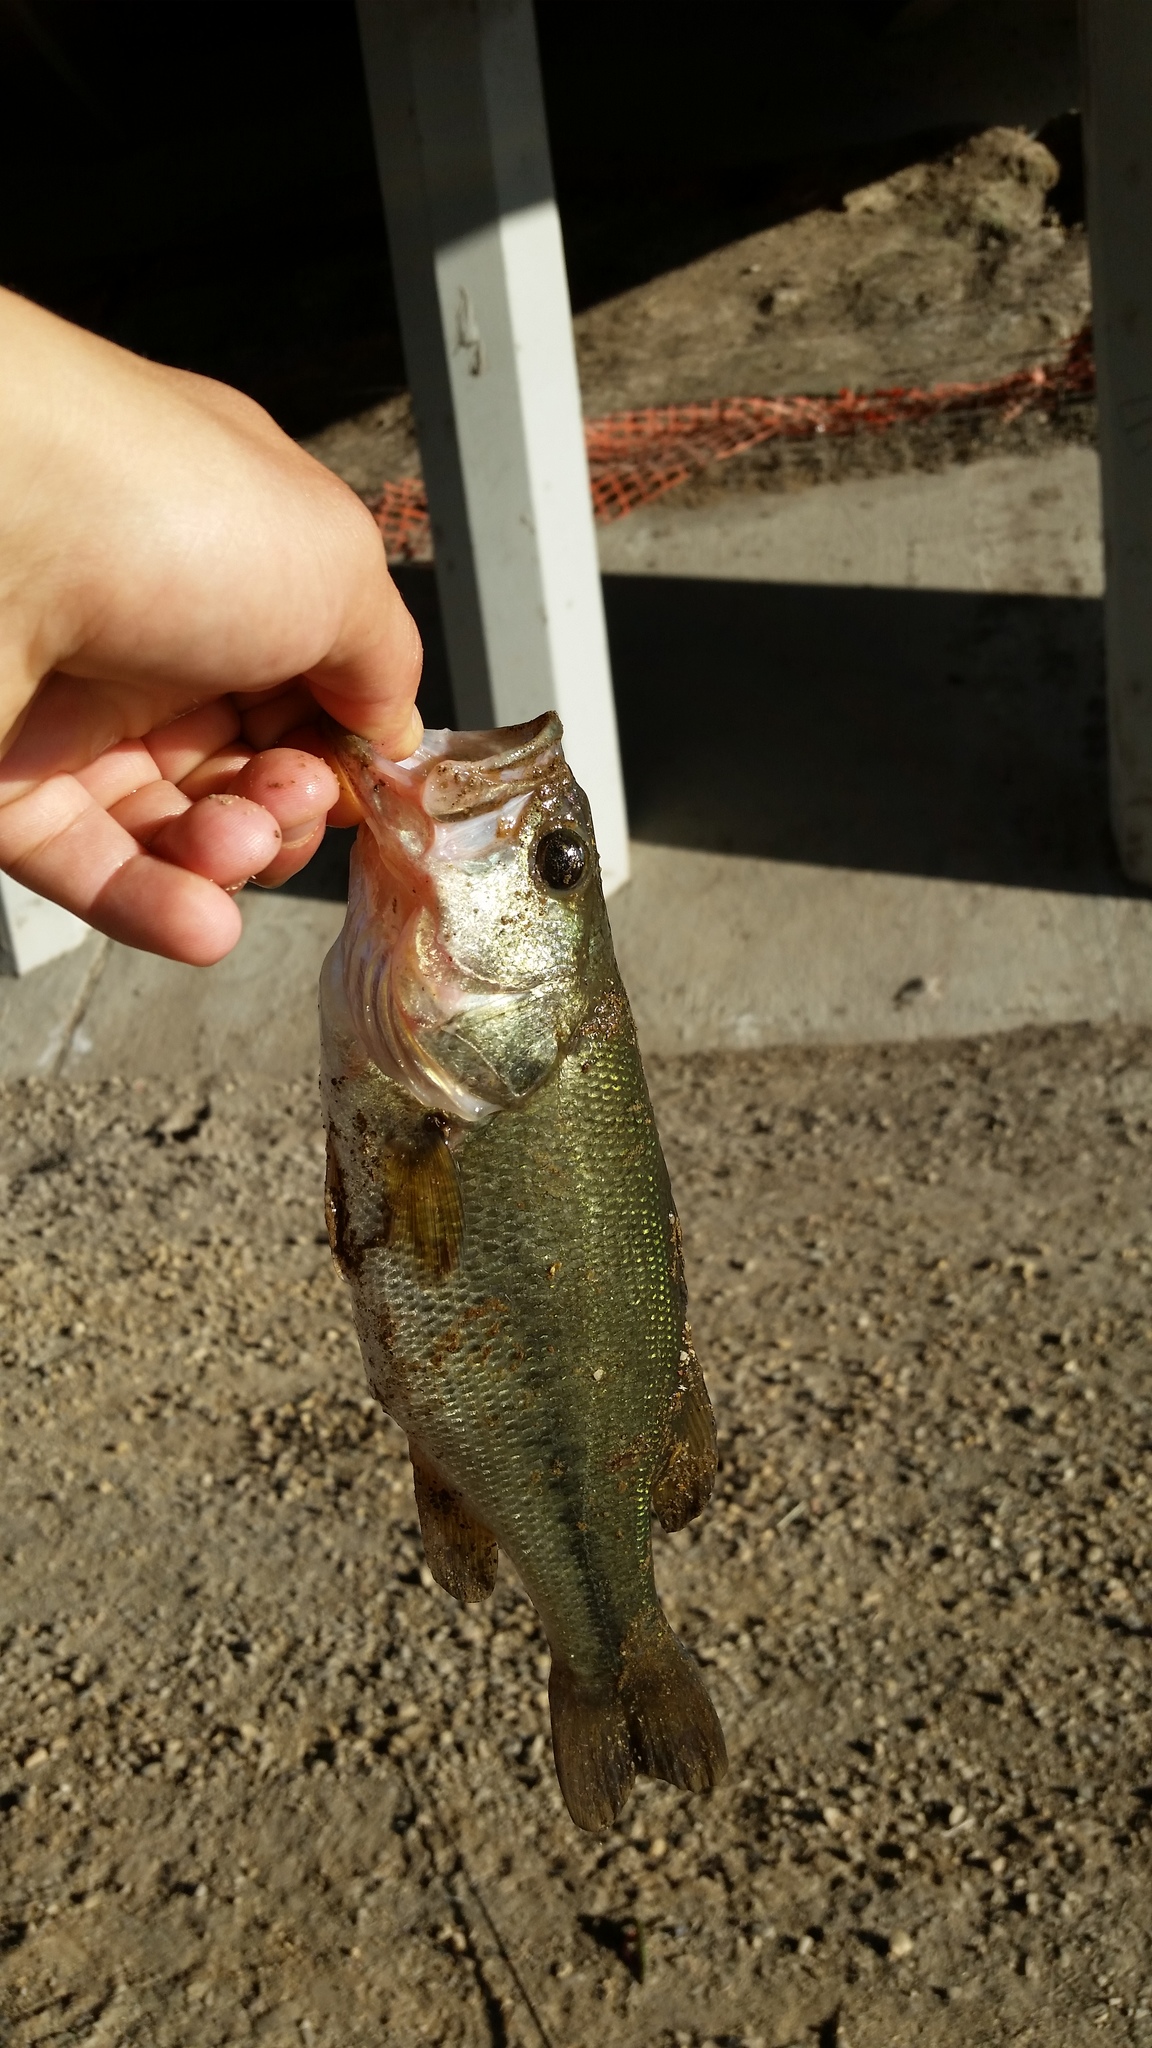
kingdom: Animalia
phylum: Chordata
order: Perciformes
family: Centrarchidae
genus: Micropterus
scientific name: Micropterus
